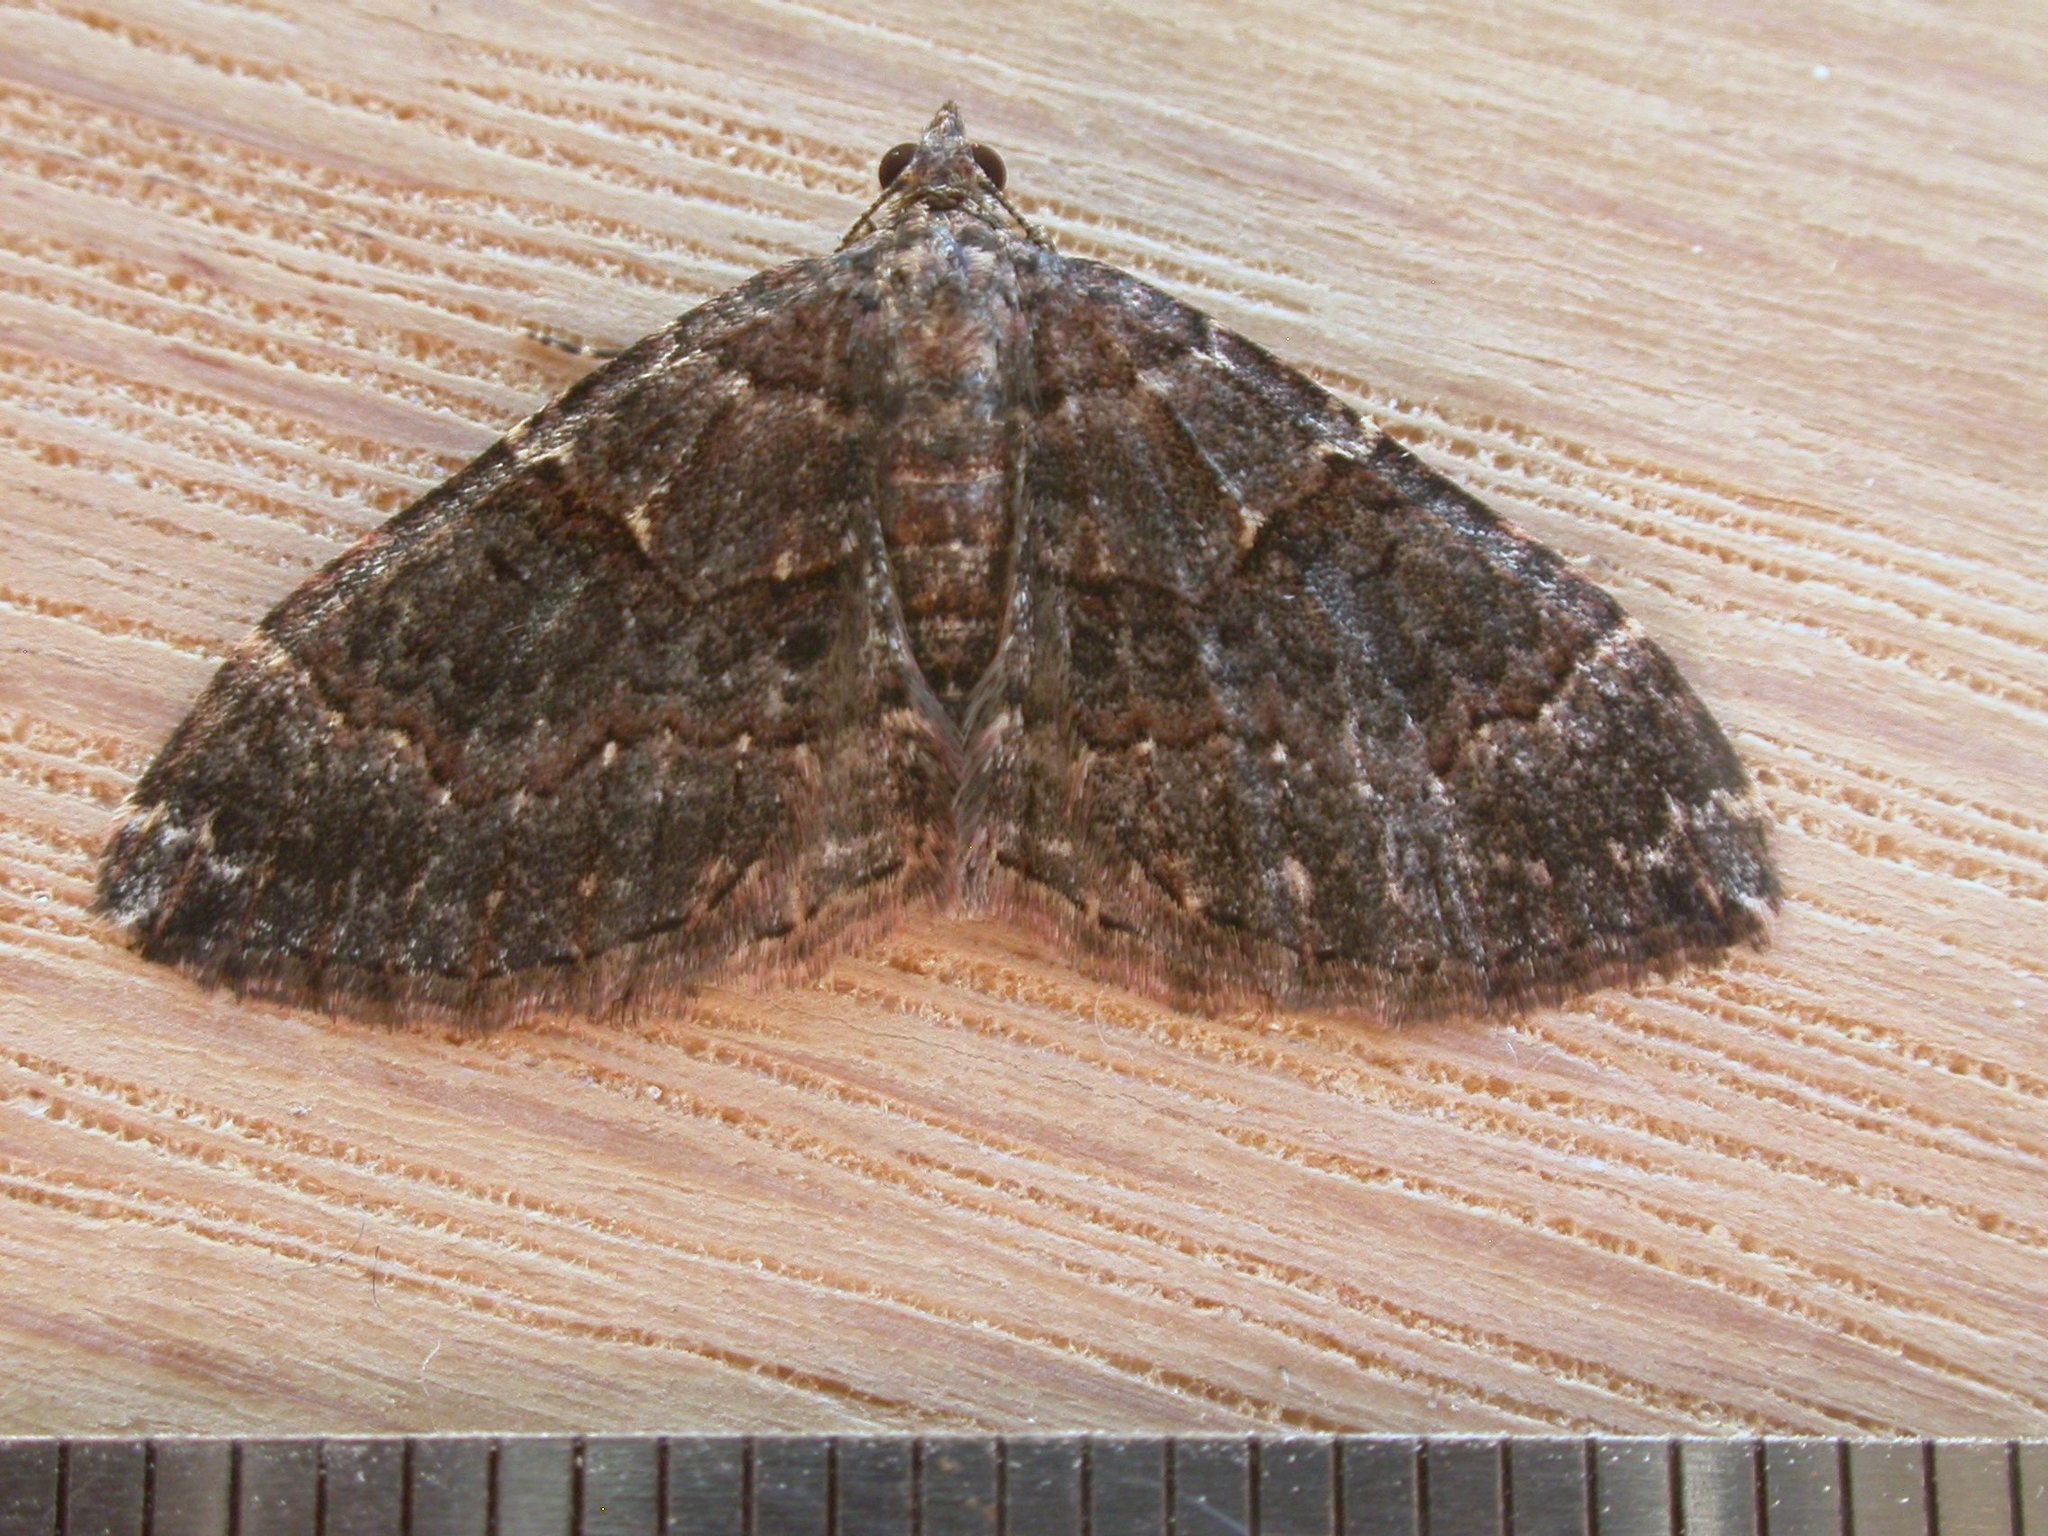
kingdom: Animalia
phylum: Arthropoda
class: Insecta
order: Lepidoptera
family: Geometridae
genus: Epyaxa
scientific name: Epyaxa sodaliata
